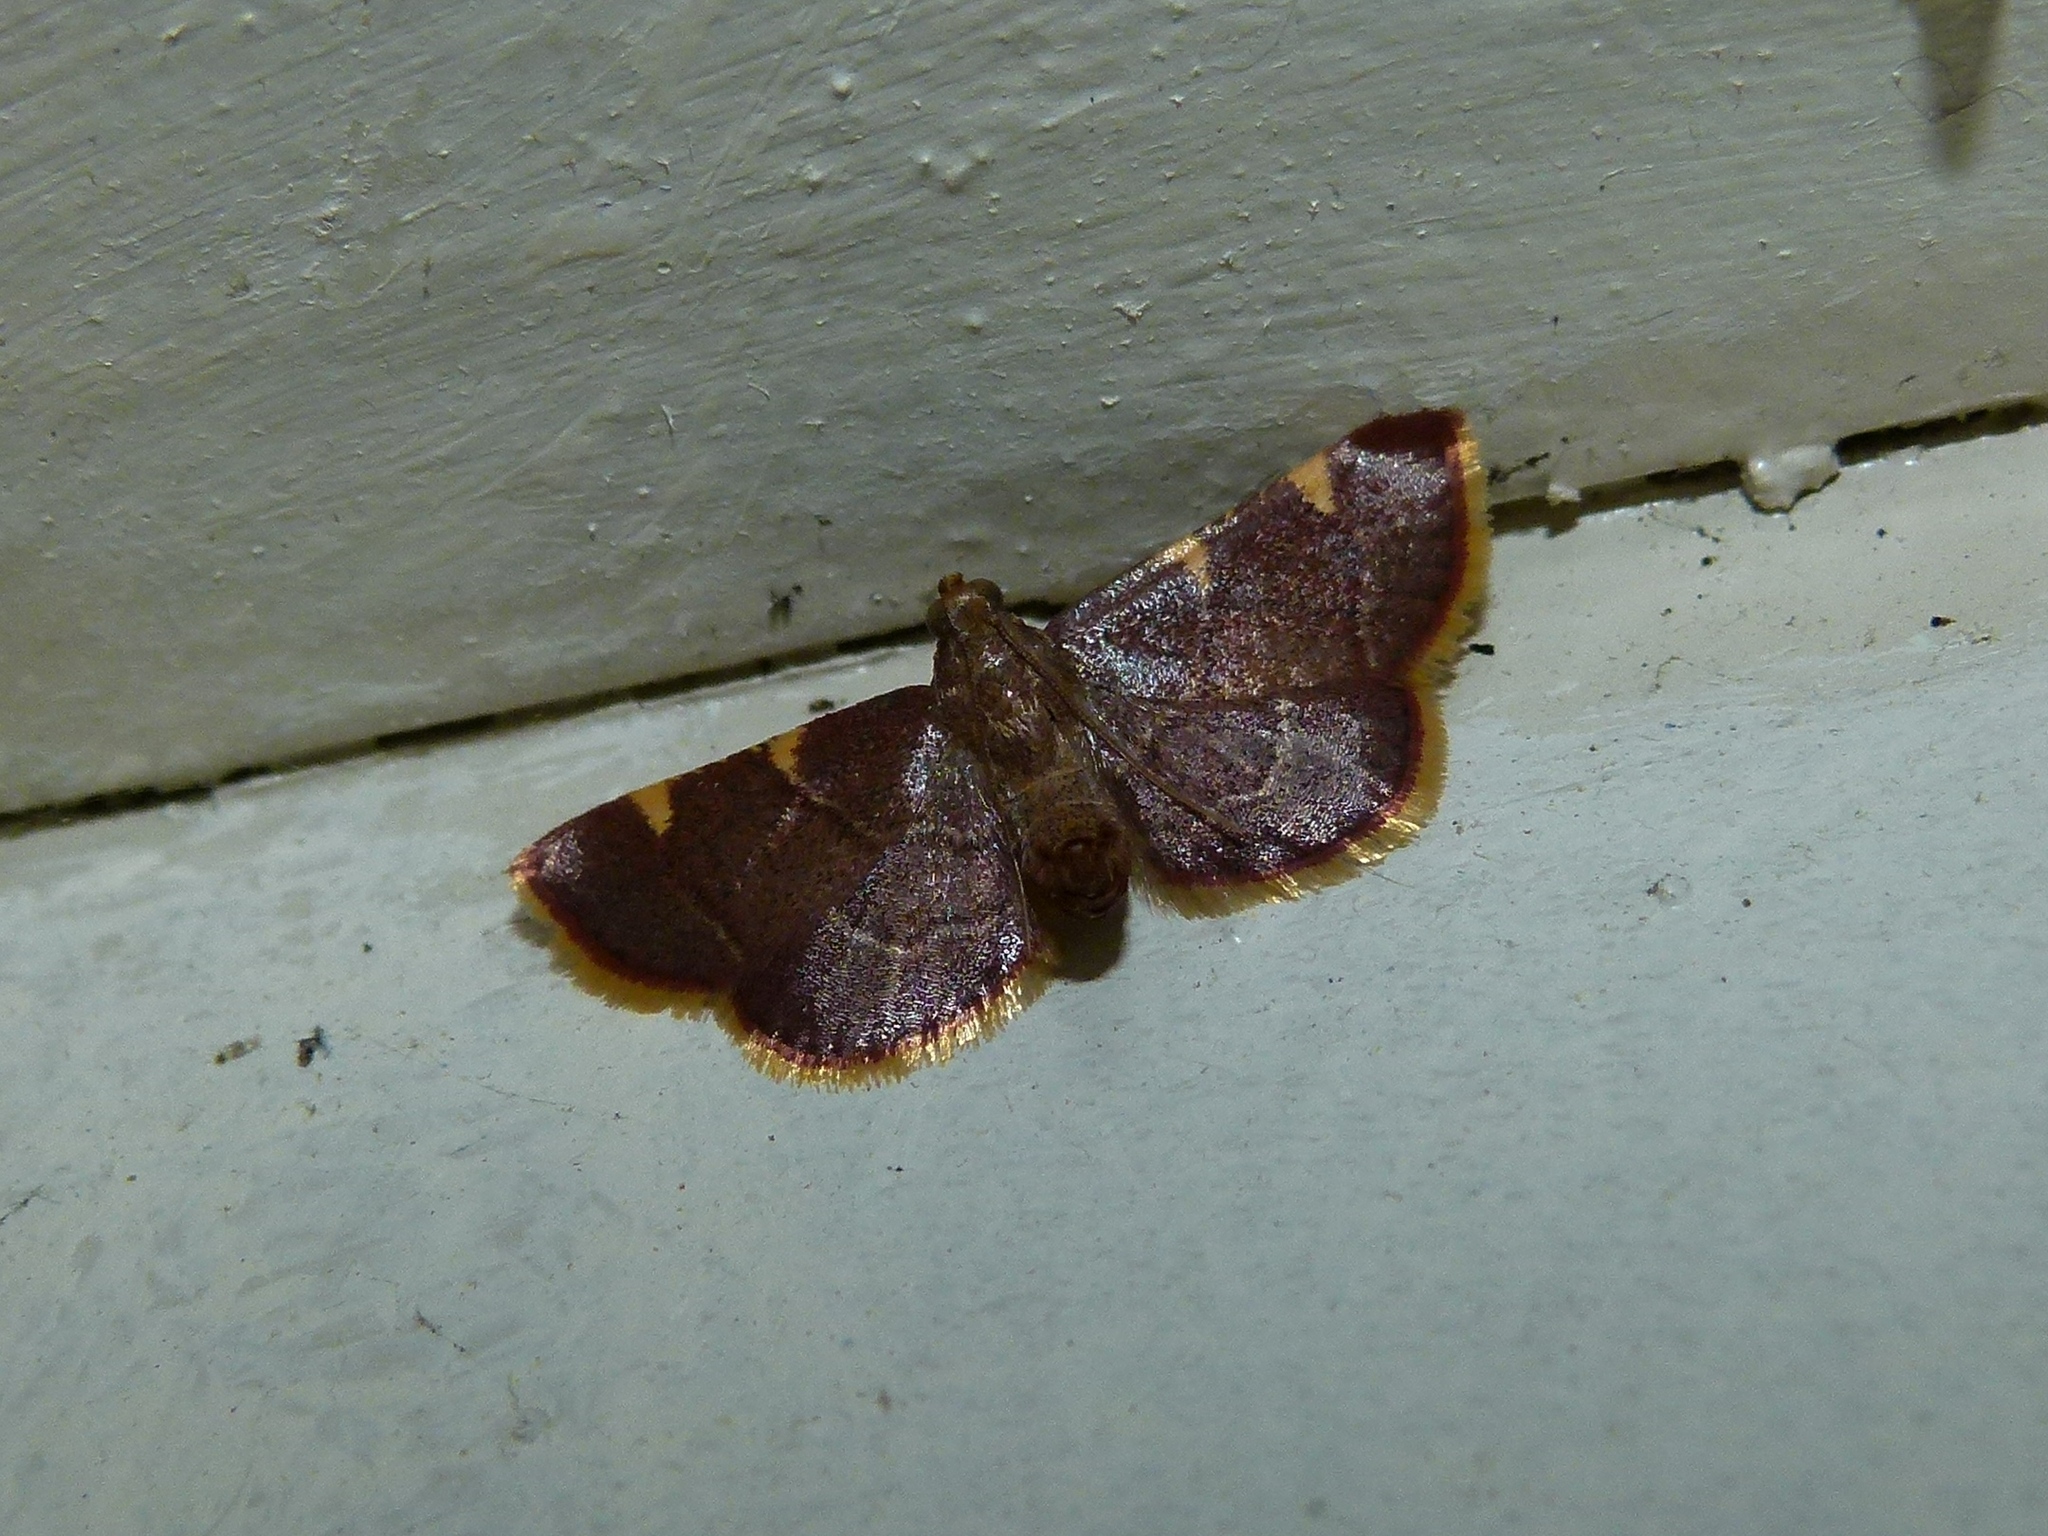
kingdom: Animalia
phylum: Arthropoda
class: Insecta
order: Lepidoptera
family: Pyralidae
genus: Hypsopygia
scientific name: Hypsopygia olinalis
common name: Yellow-fringed dolichomia moth
